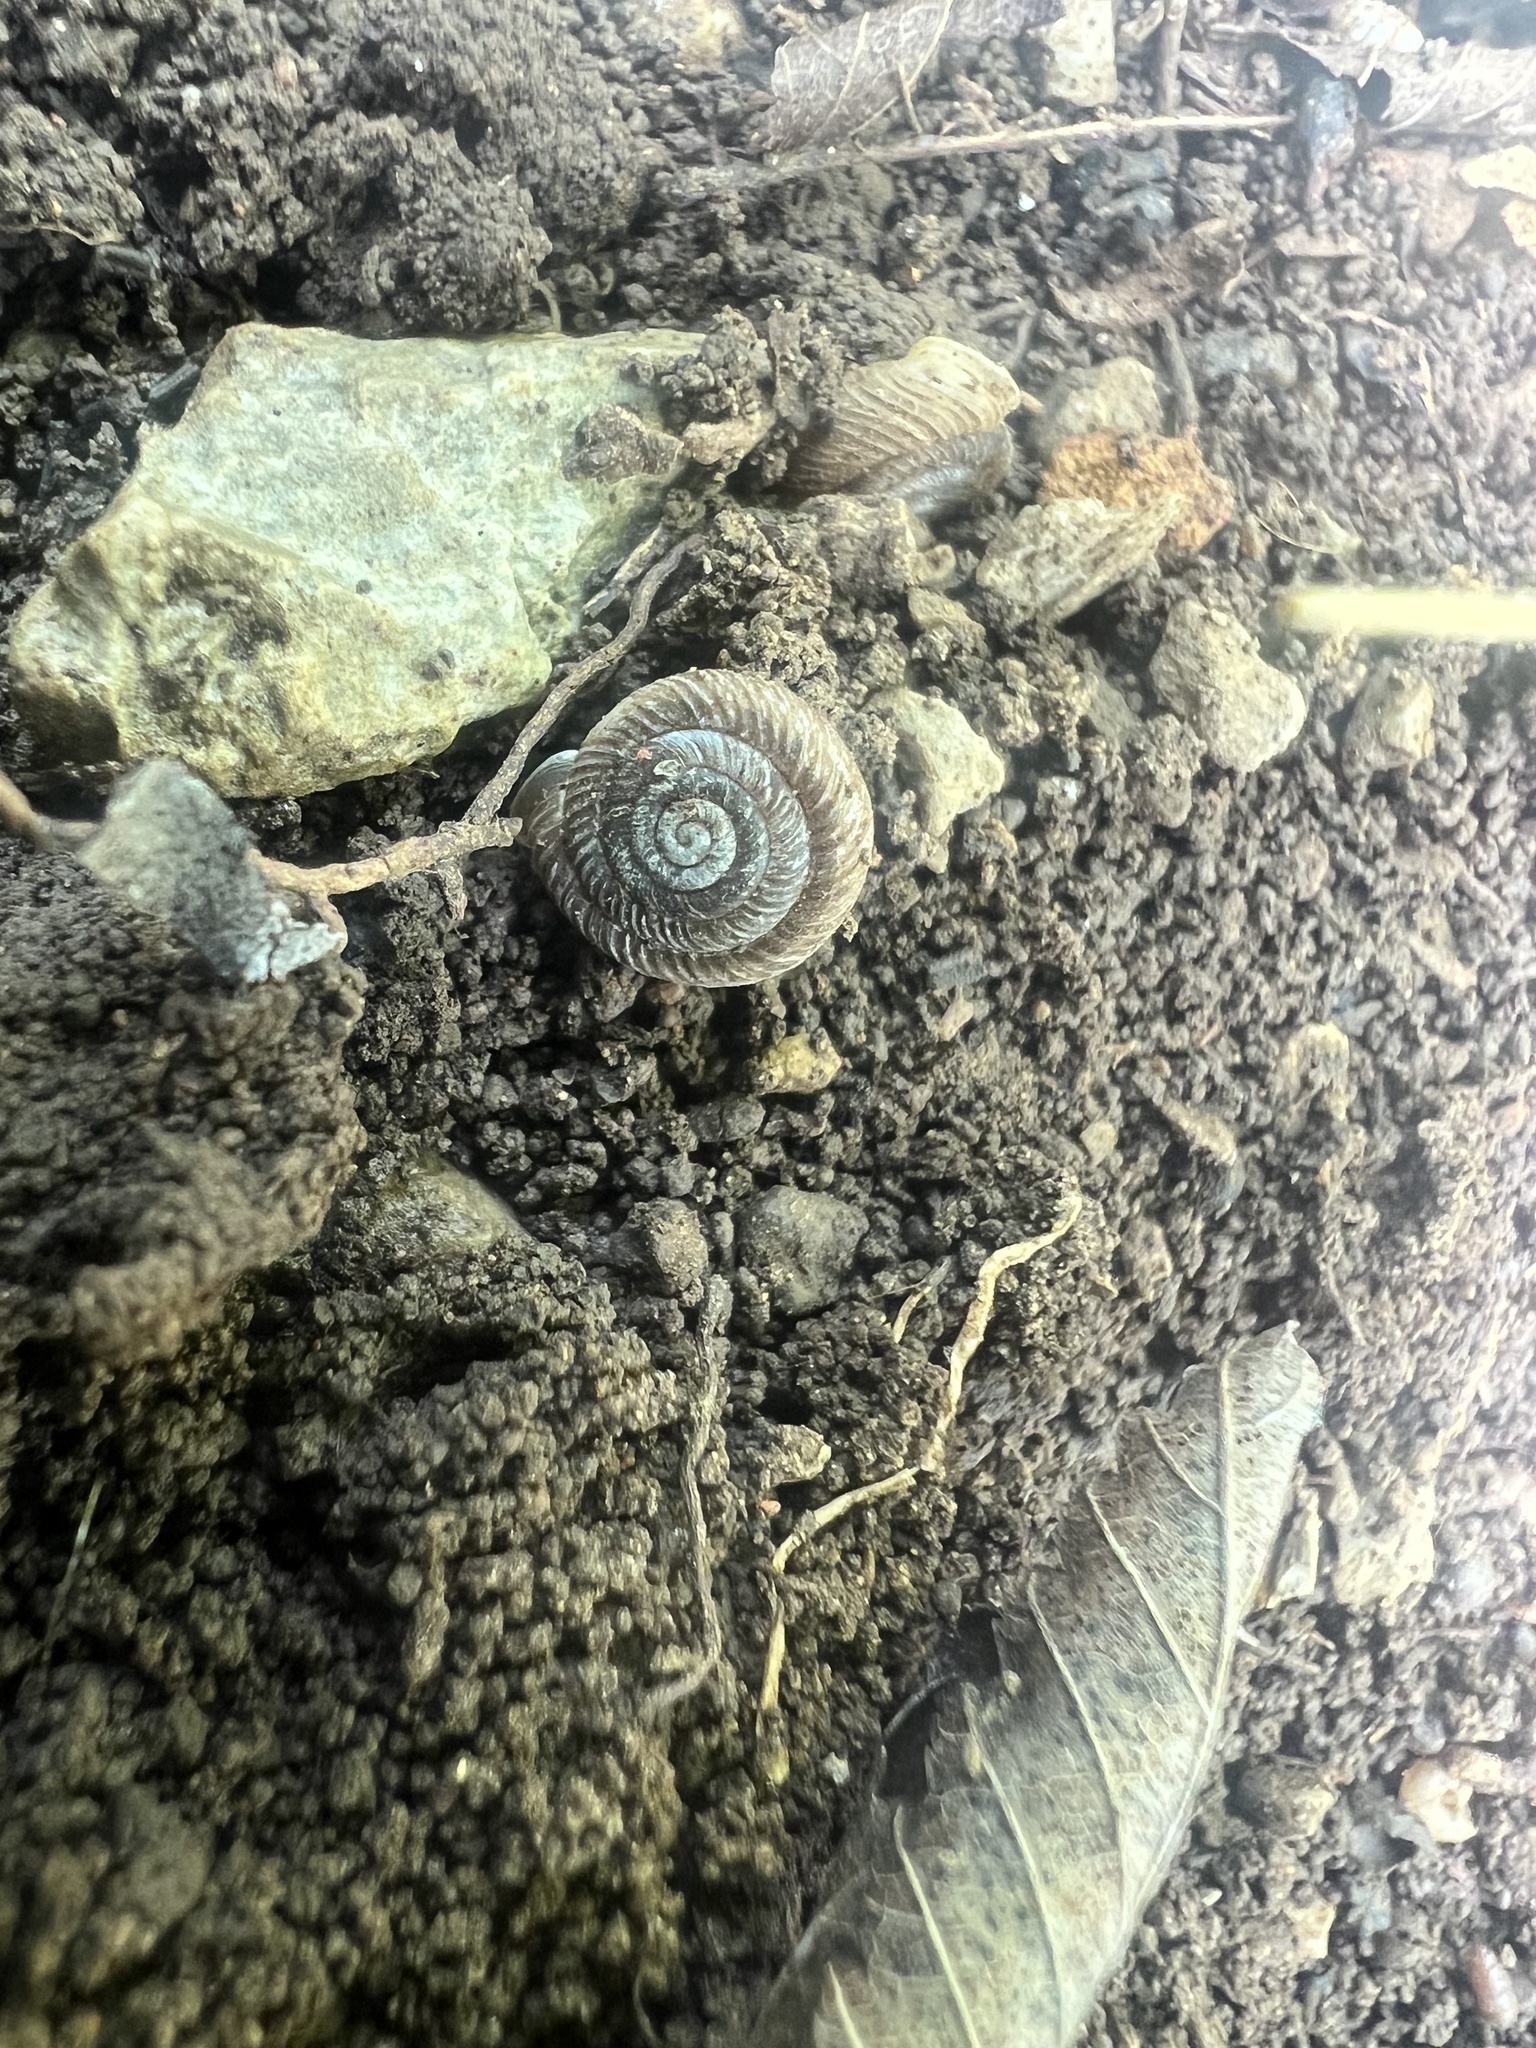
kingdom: Animalia
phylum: Mollusca
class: Gastropoda
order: Stylommatophora
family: Polygyridae
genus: Daedalochila
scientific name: Daedalochila troostiana
